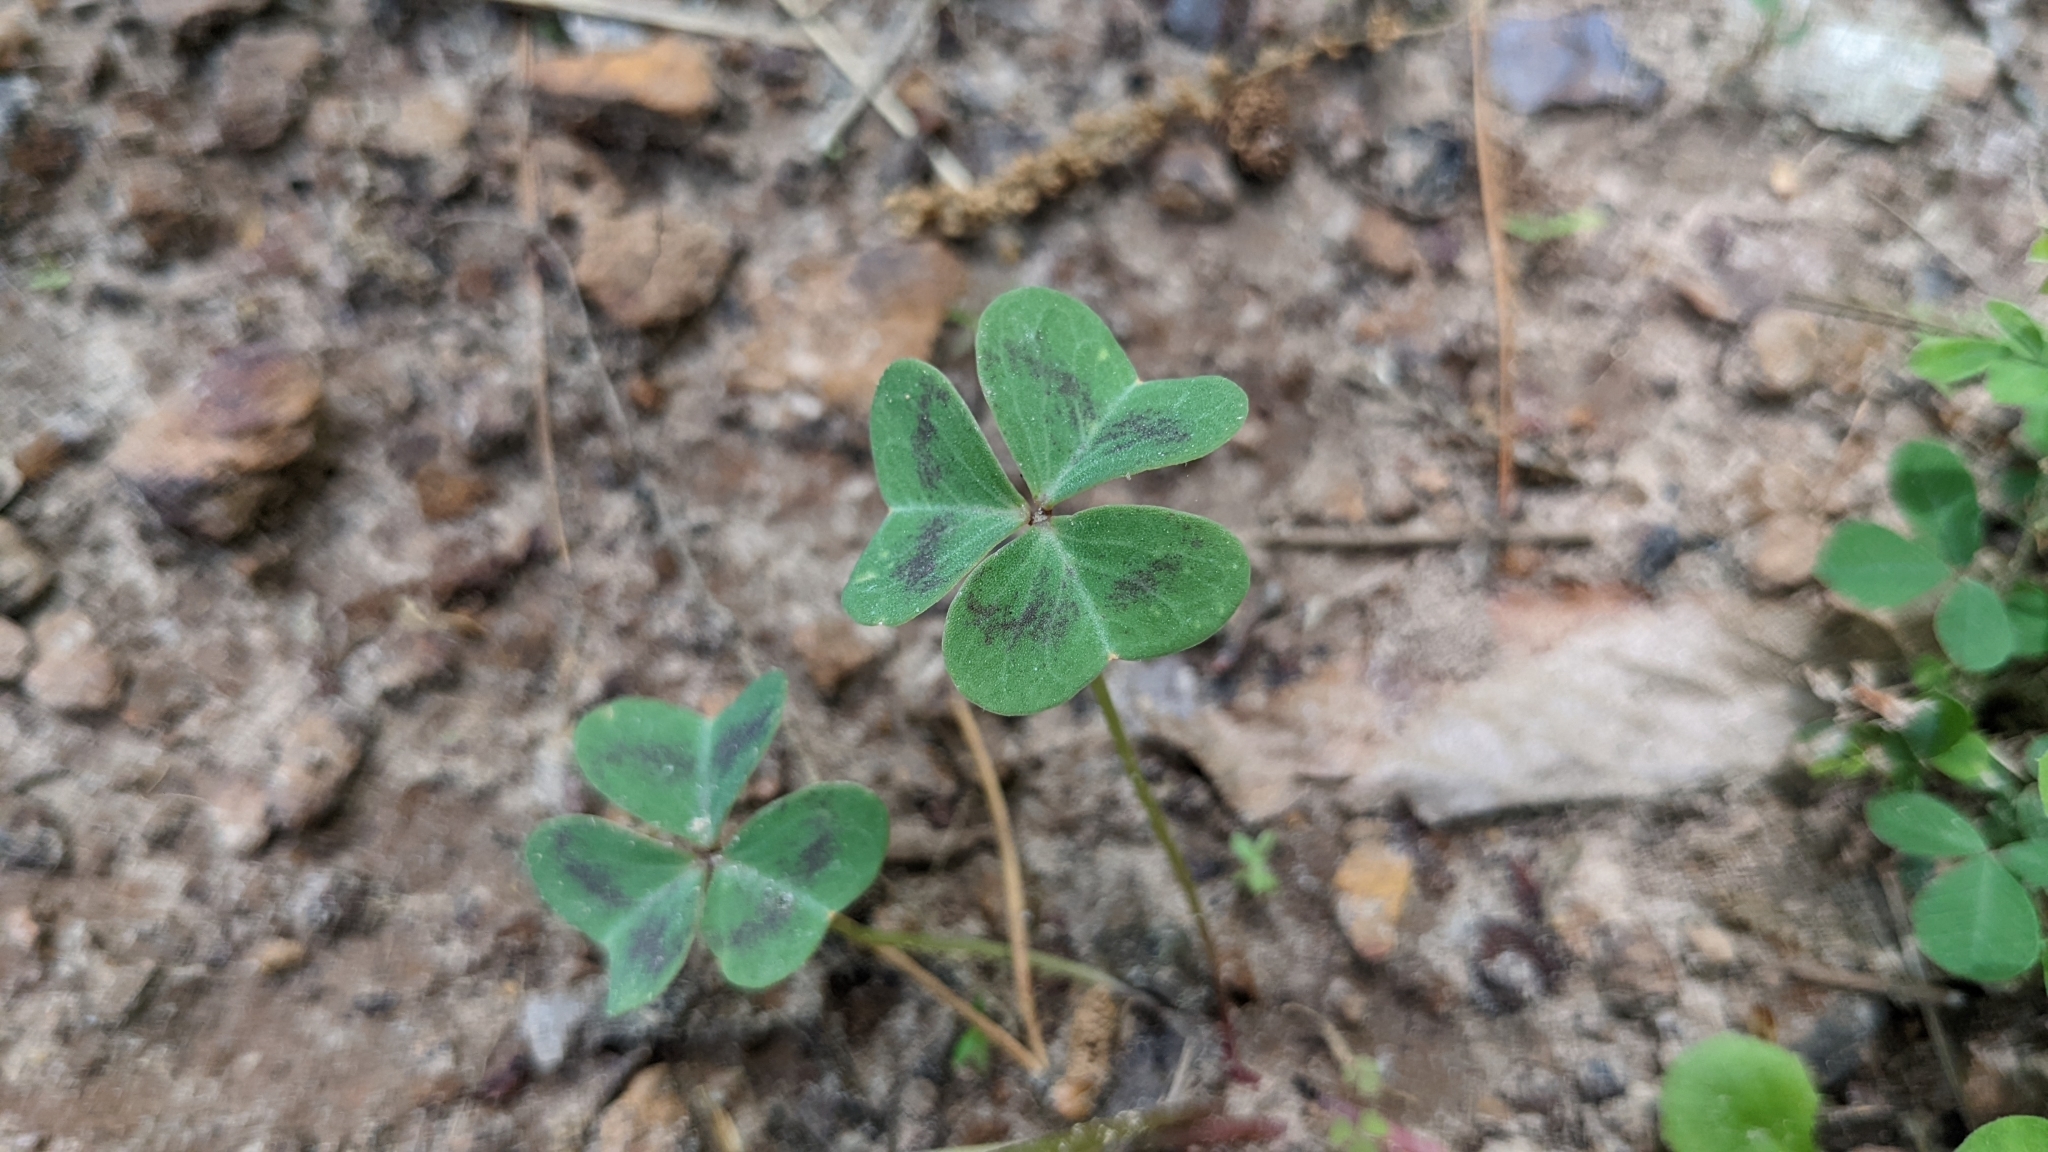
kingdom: Plantae
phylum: Tracheophyta
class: Magnoliopsida
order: Oxalidales
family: Oxalidaceae
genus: Oxalis
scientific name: Oxalis violacea
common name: Violet wood-sorrel
